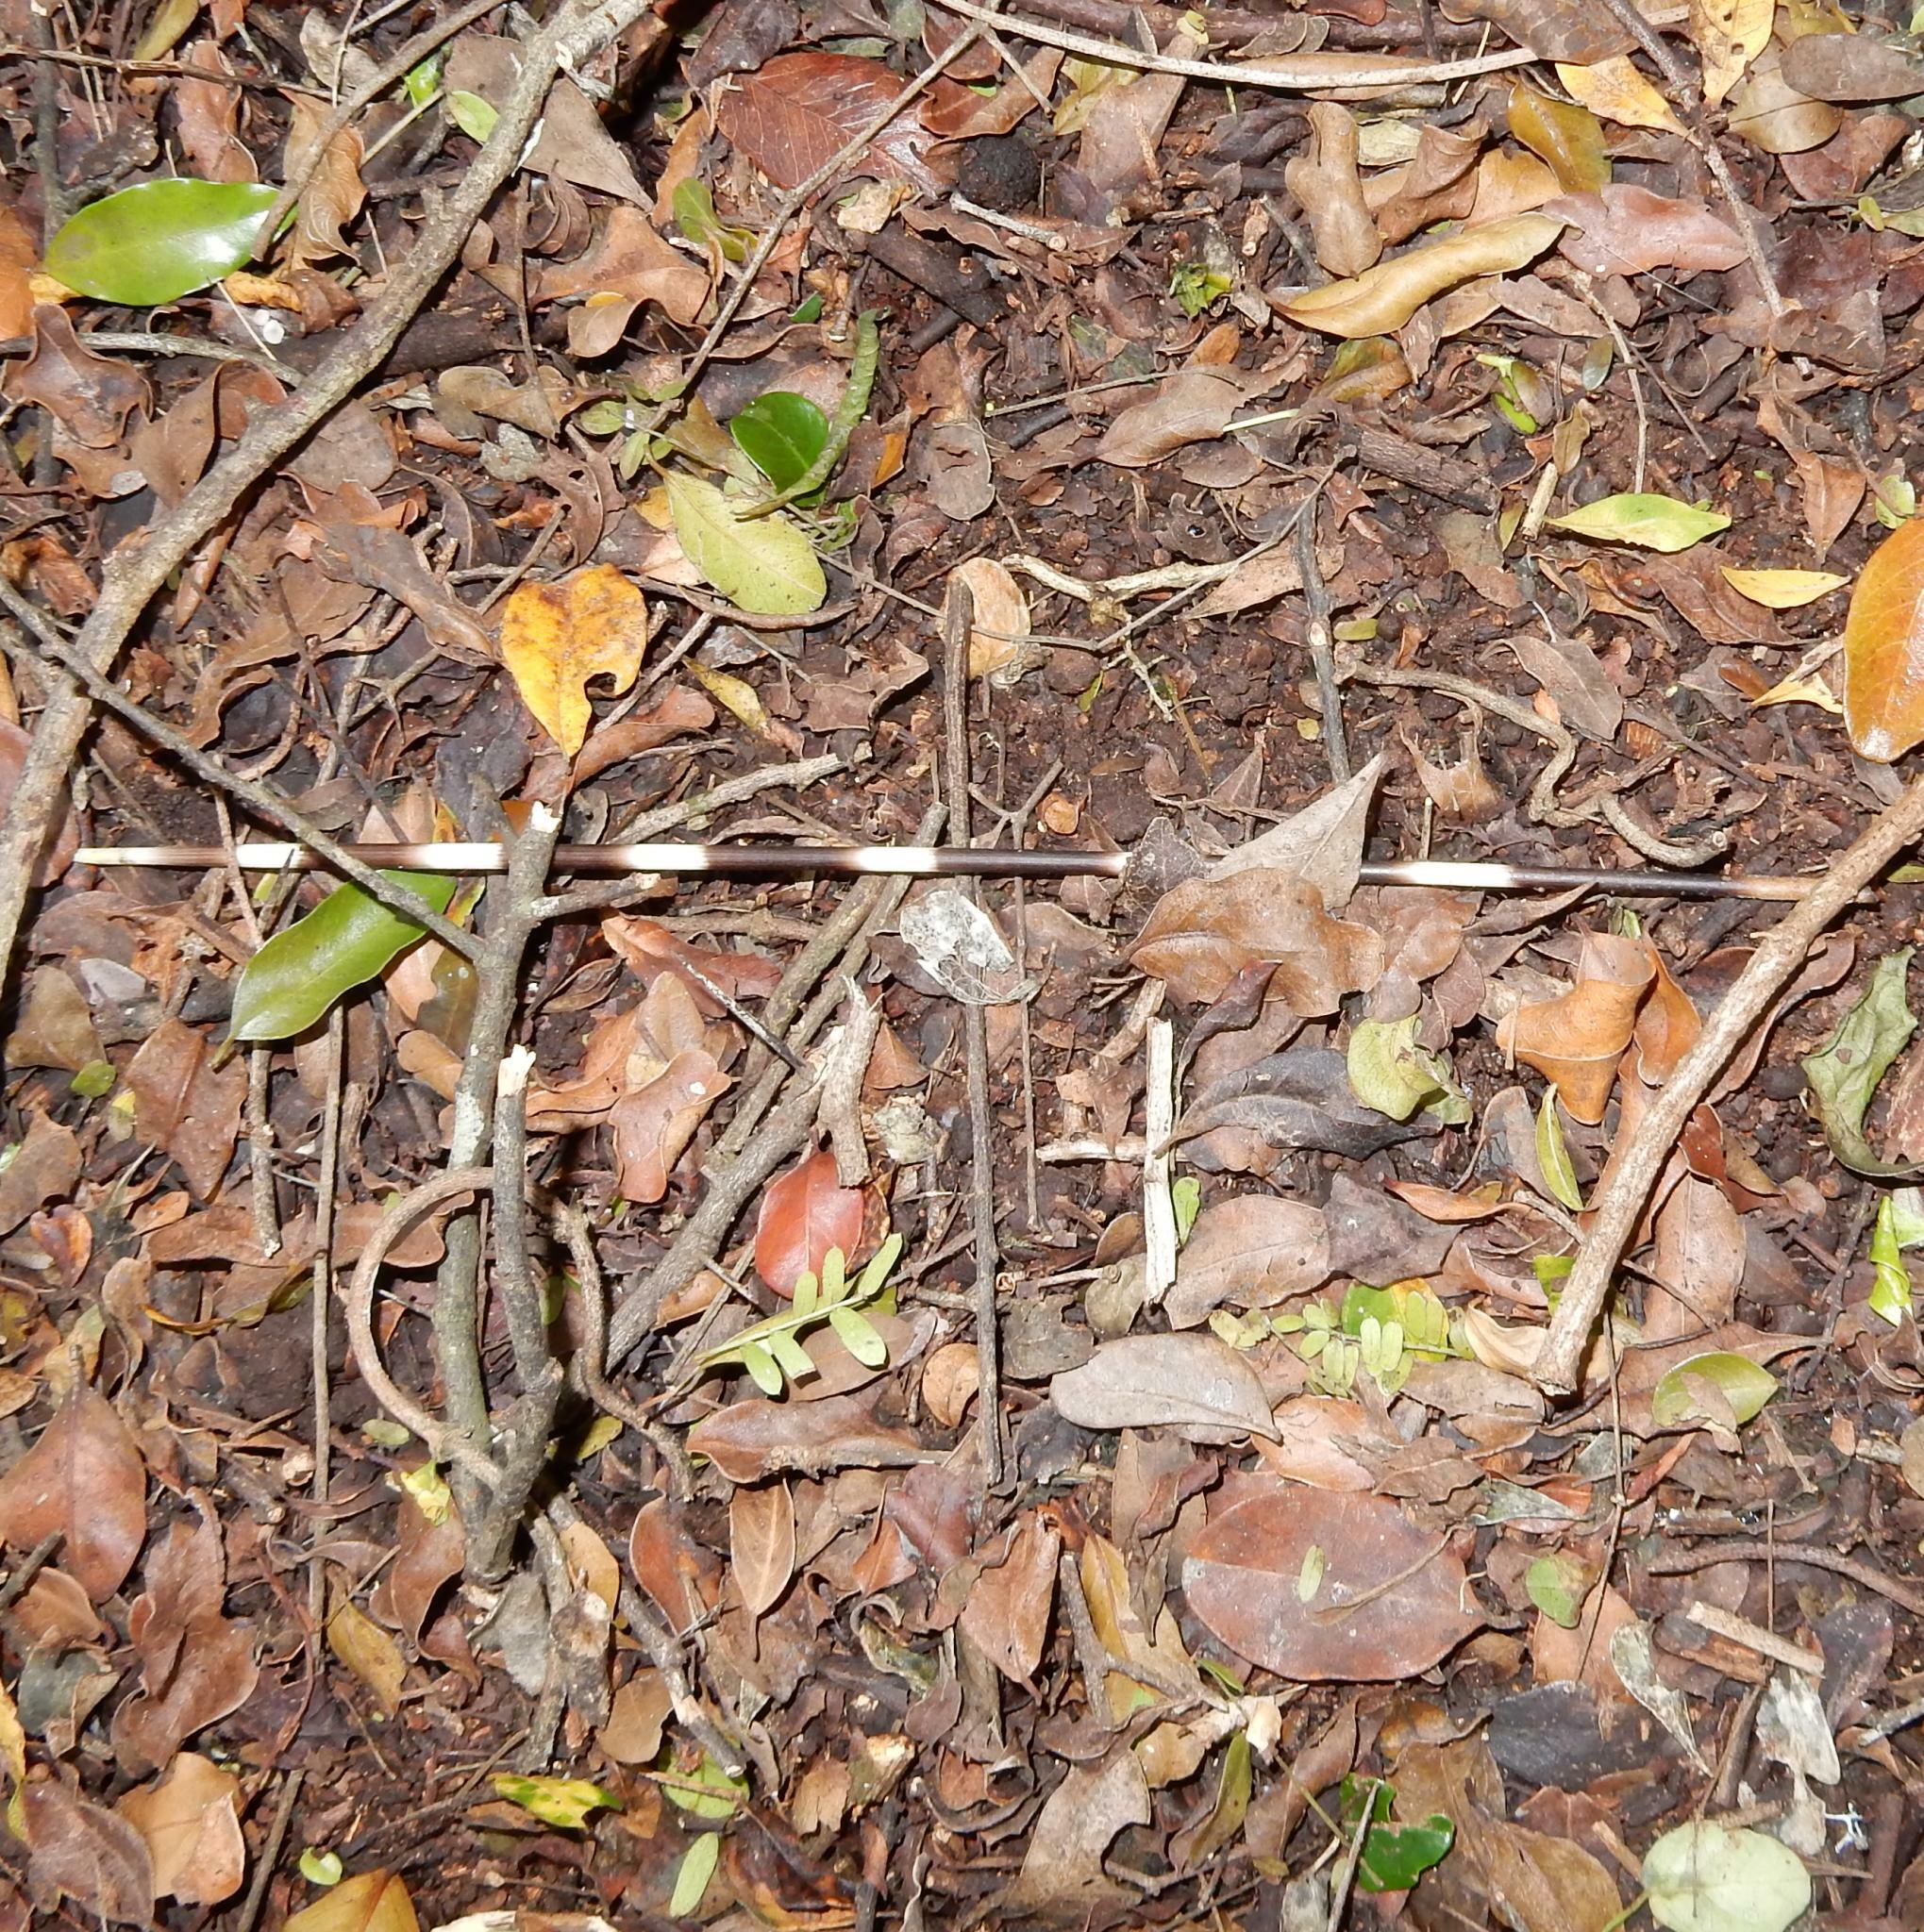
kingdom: Animalia
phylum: Chordata
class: Mammalia
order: Rodentia
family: Hystricidae
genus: Hystrix
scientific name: Hystrix africaeaustralis
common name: Cape porcupine
